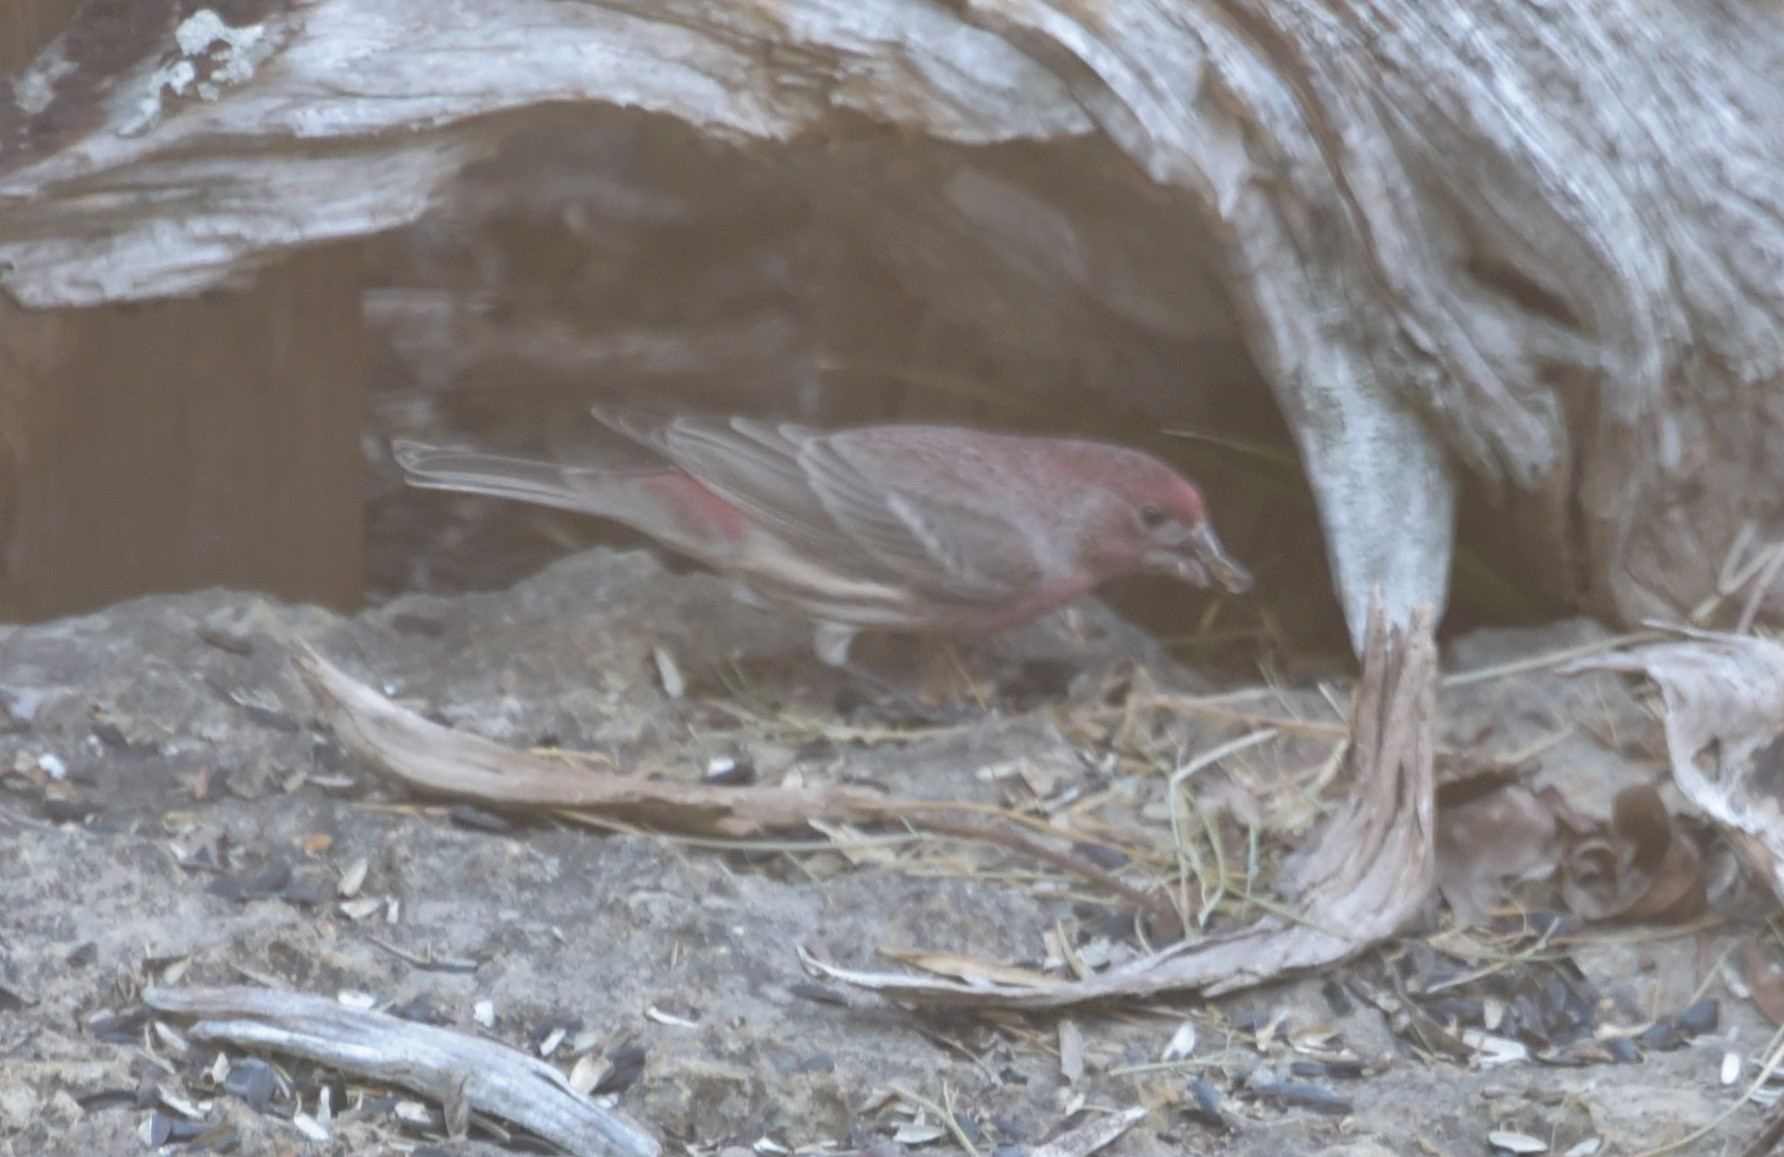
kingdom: Animalia
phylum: Chordata
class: Aves
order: Passeriformes
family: Fringillidae
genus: Haemorhous
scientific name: Haemorhous mexicanus
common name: House finch
